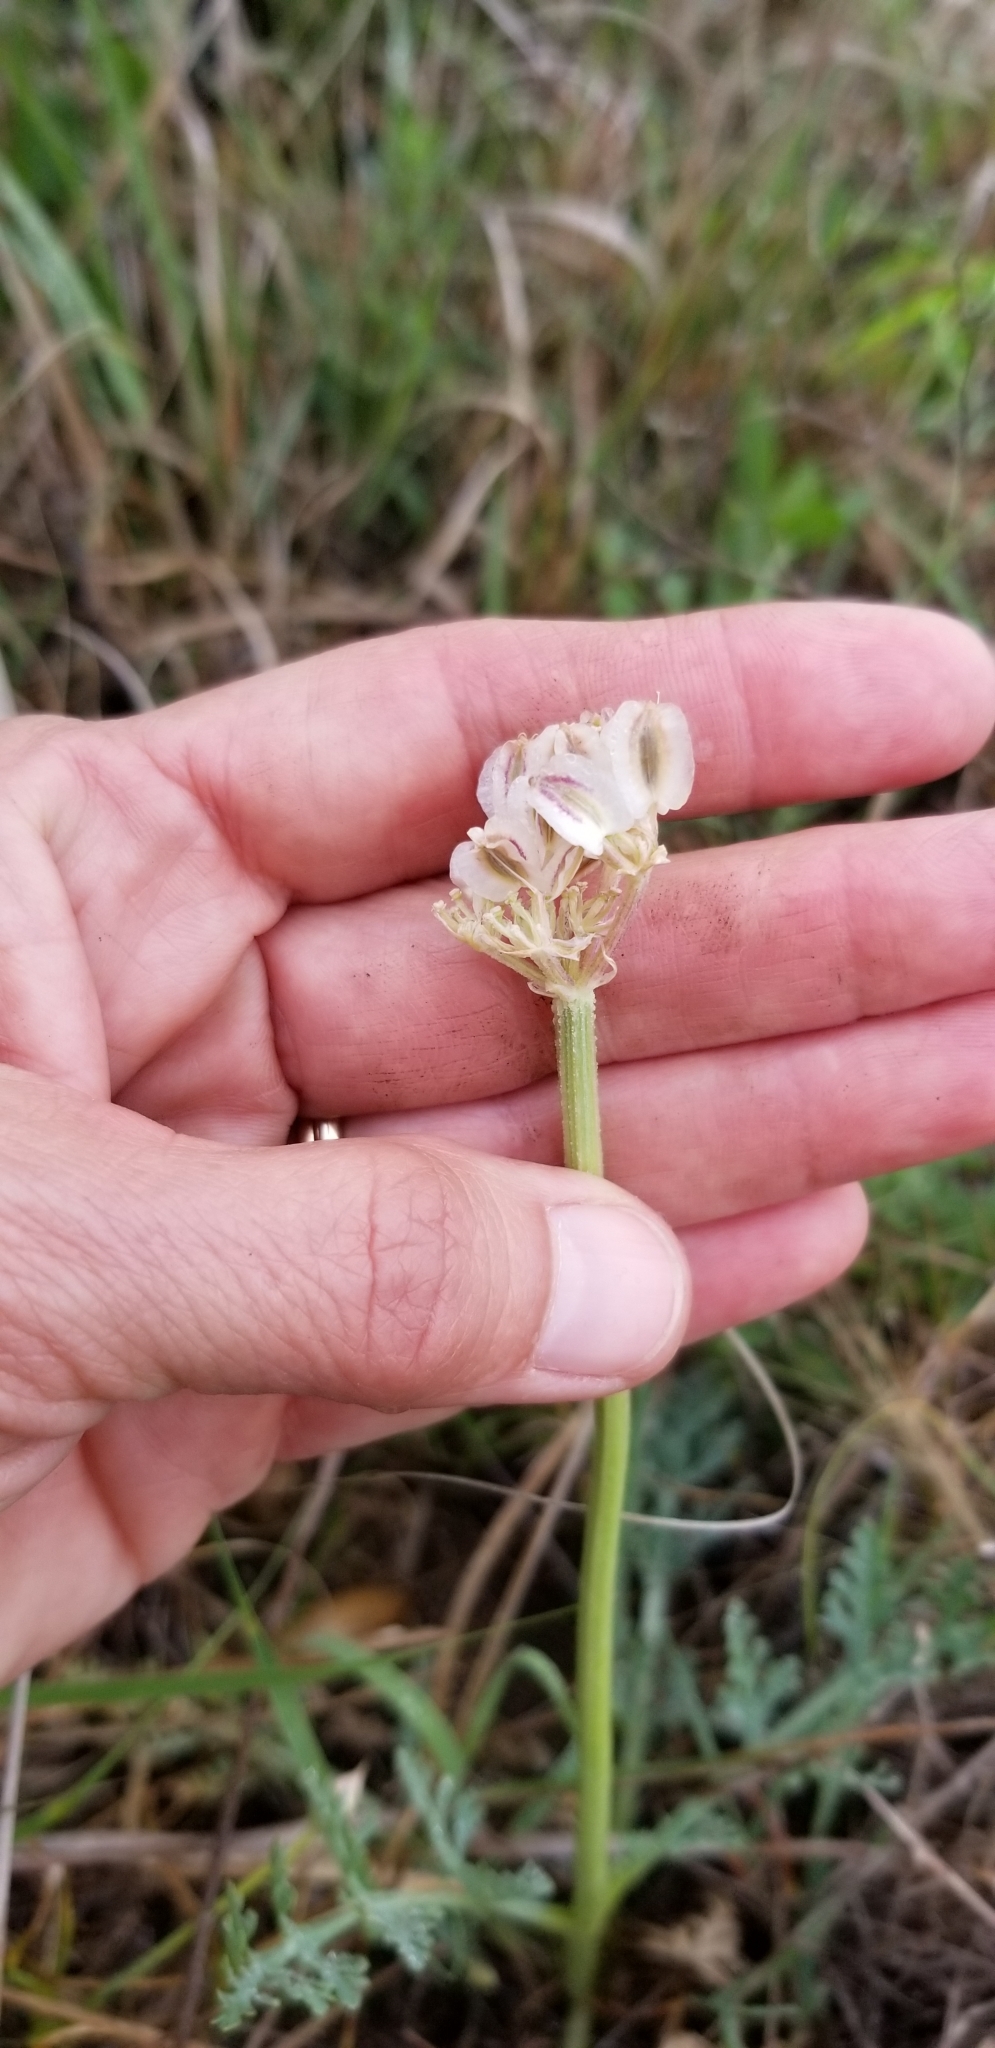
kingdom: Plantae
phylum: Tracheophyta
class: Magnoliopsida
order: Apiales
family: Apiaceae
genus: Vesper
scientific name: Vesper macrorhizus
